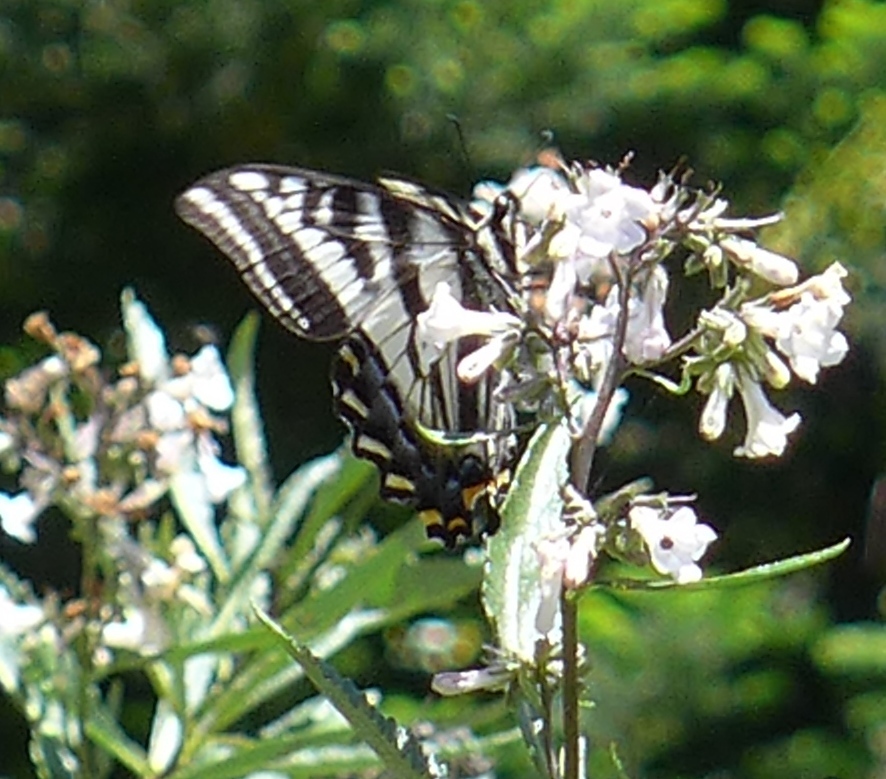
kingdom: Animalia
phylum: Arthropoda
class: Insecta
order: Lepidoptera
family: Papilionidae
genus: Papilio
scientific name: Papilio eurymedon
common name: Pale tiger swallowtail
